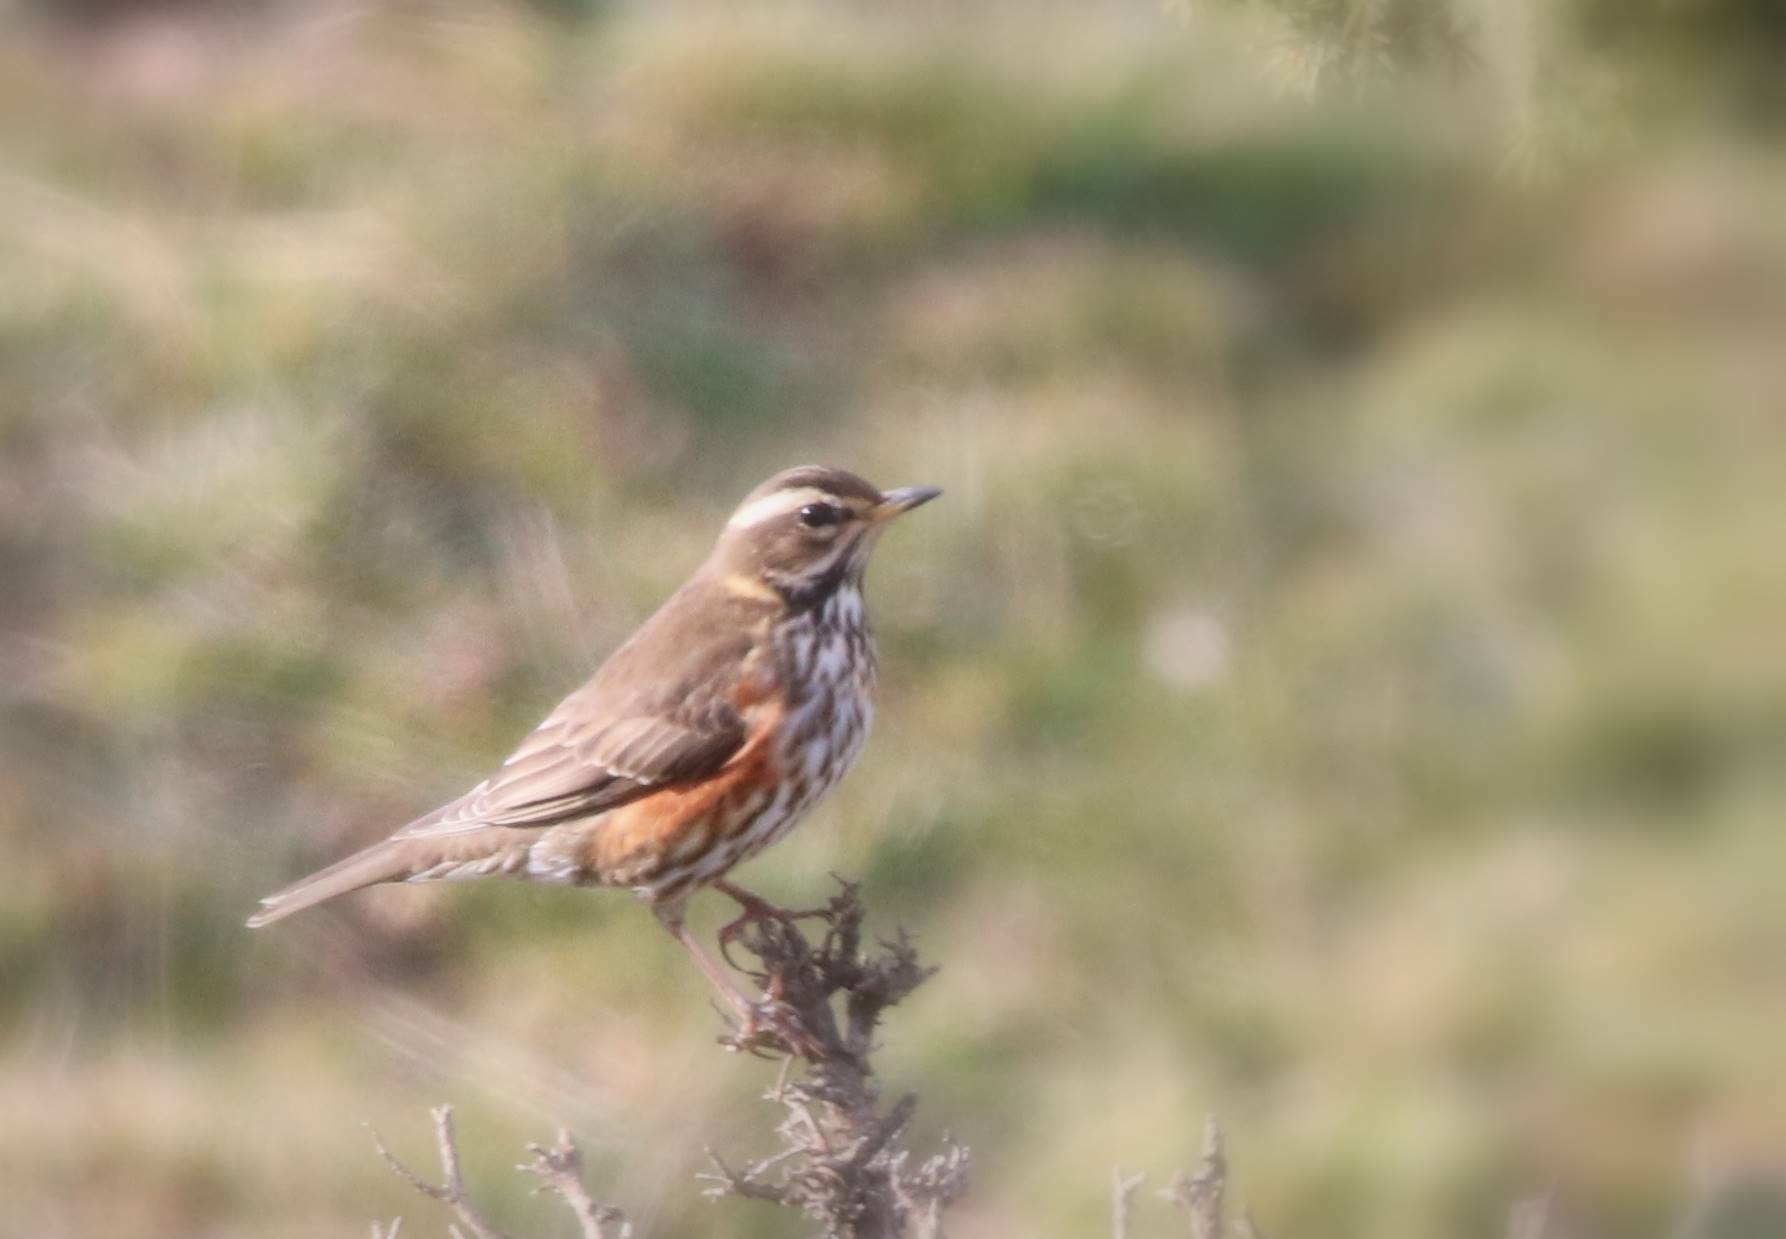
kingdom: Animalia
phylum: Chordata
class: Aves
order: Passeriformes
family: Turdidae
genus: Turdus
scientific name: Turdus iliacus
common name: Redwing
